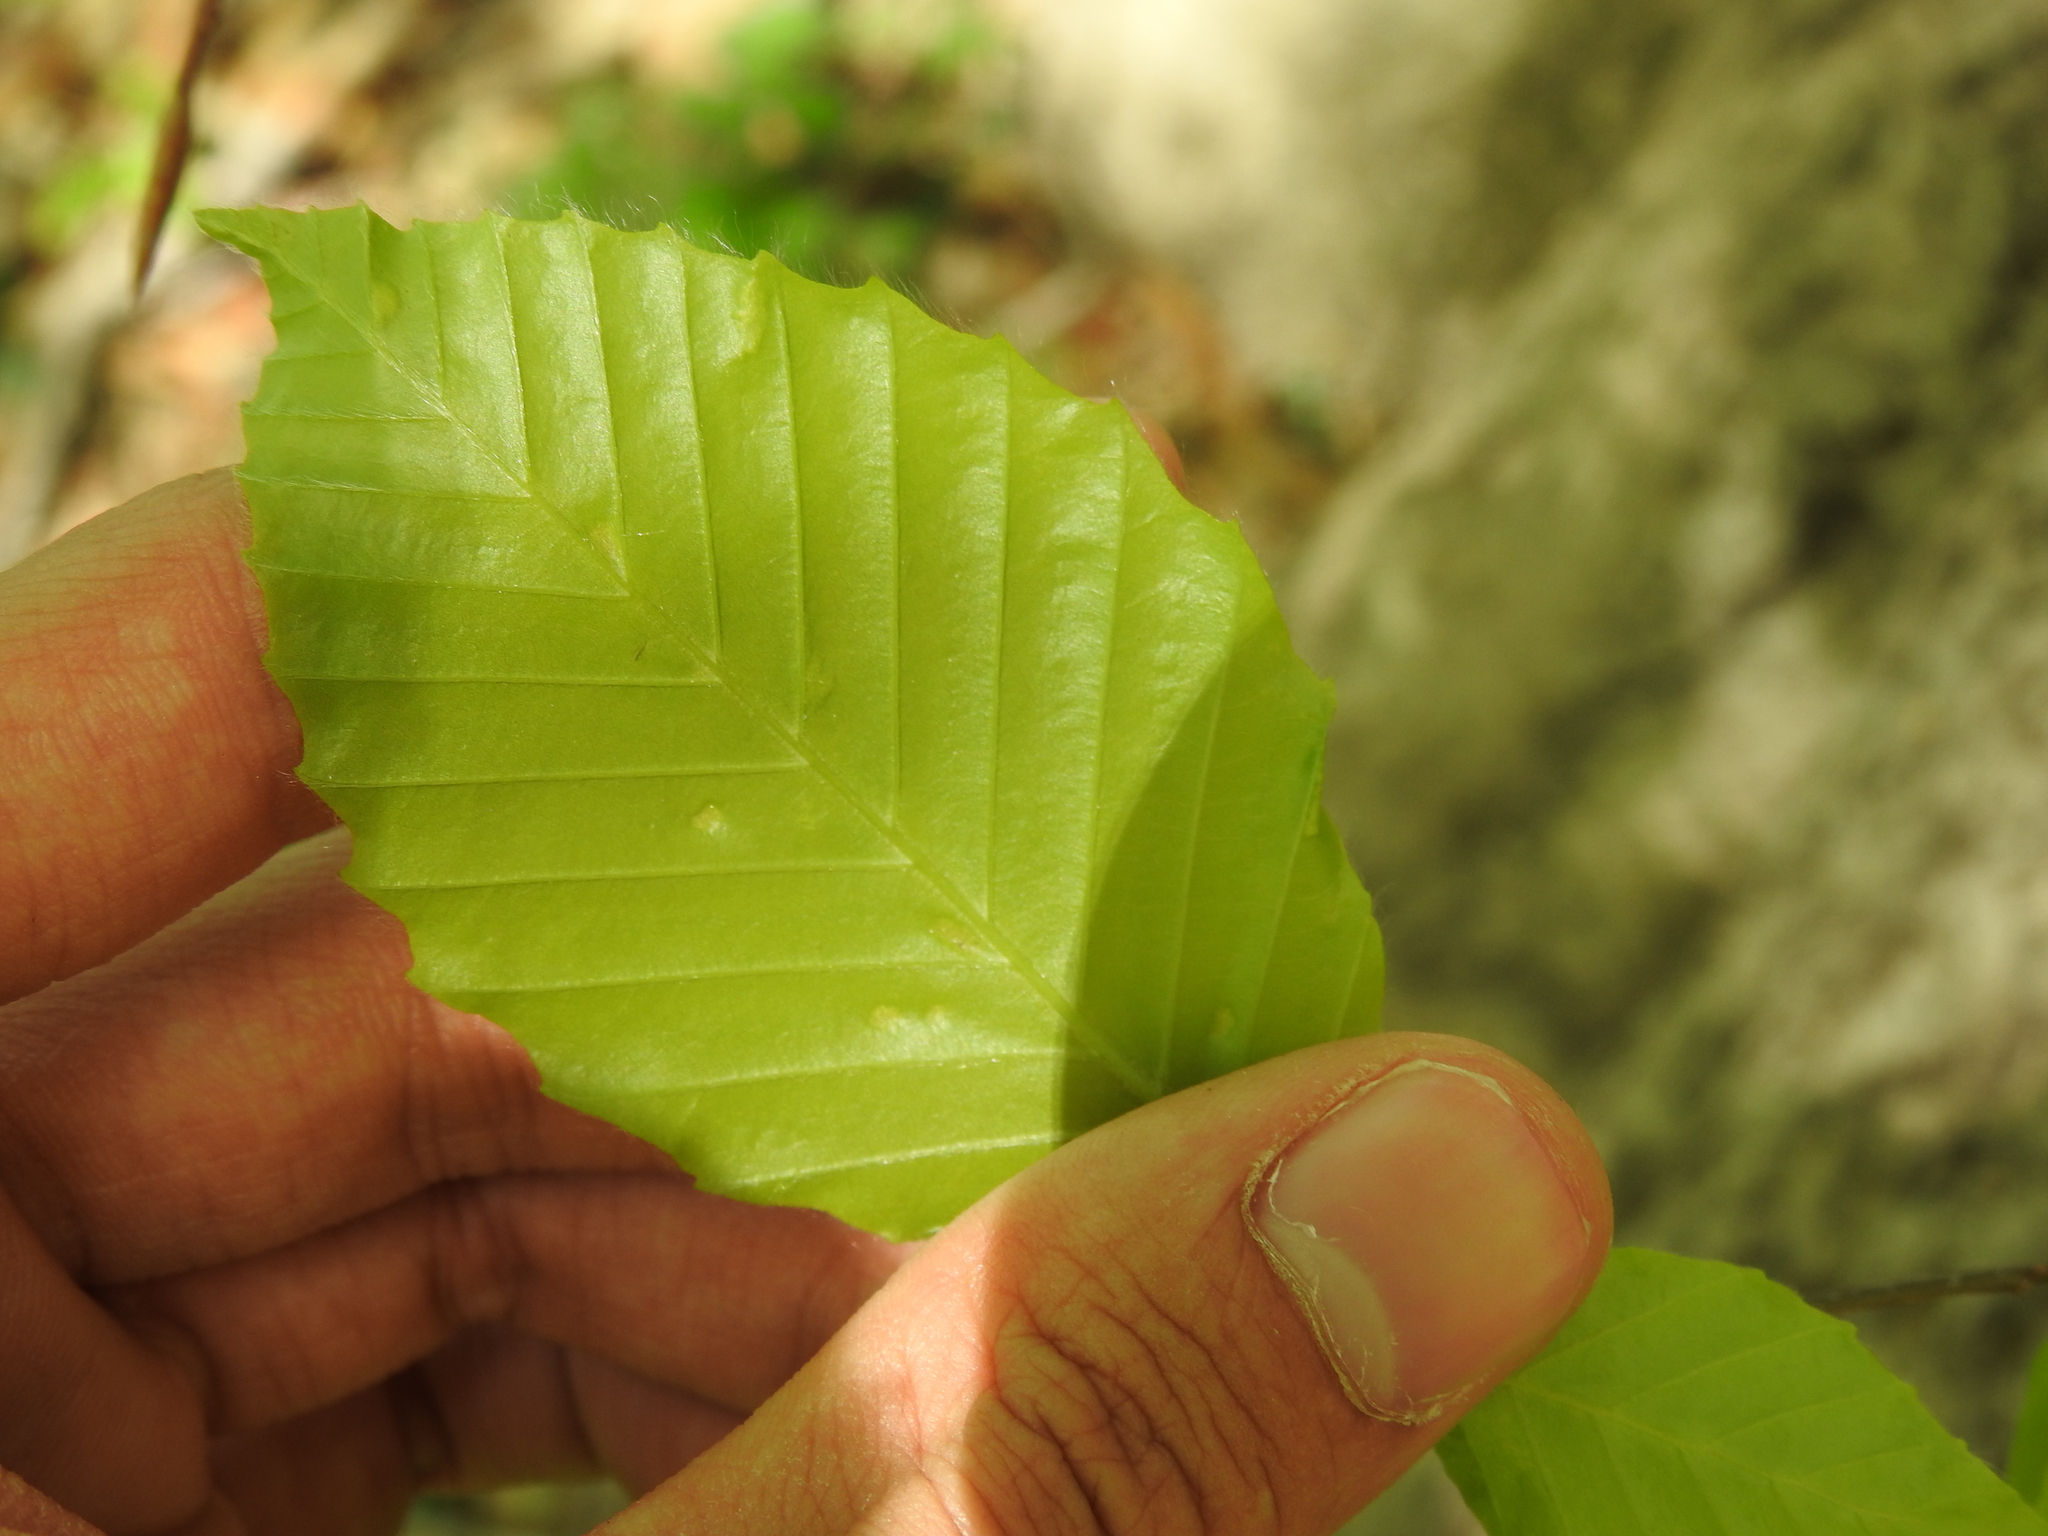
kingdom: Animalia
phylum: Arthropoda
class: Arachnida
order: Trombidiformes
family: Eriophyidae
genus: Acalitus
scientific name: Acalitus
